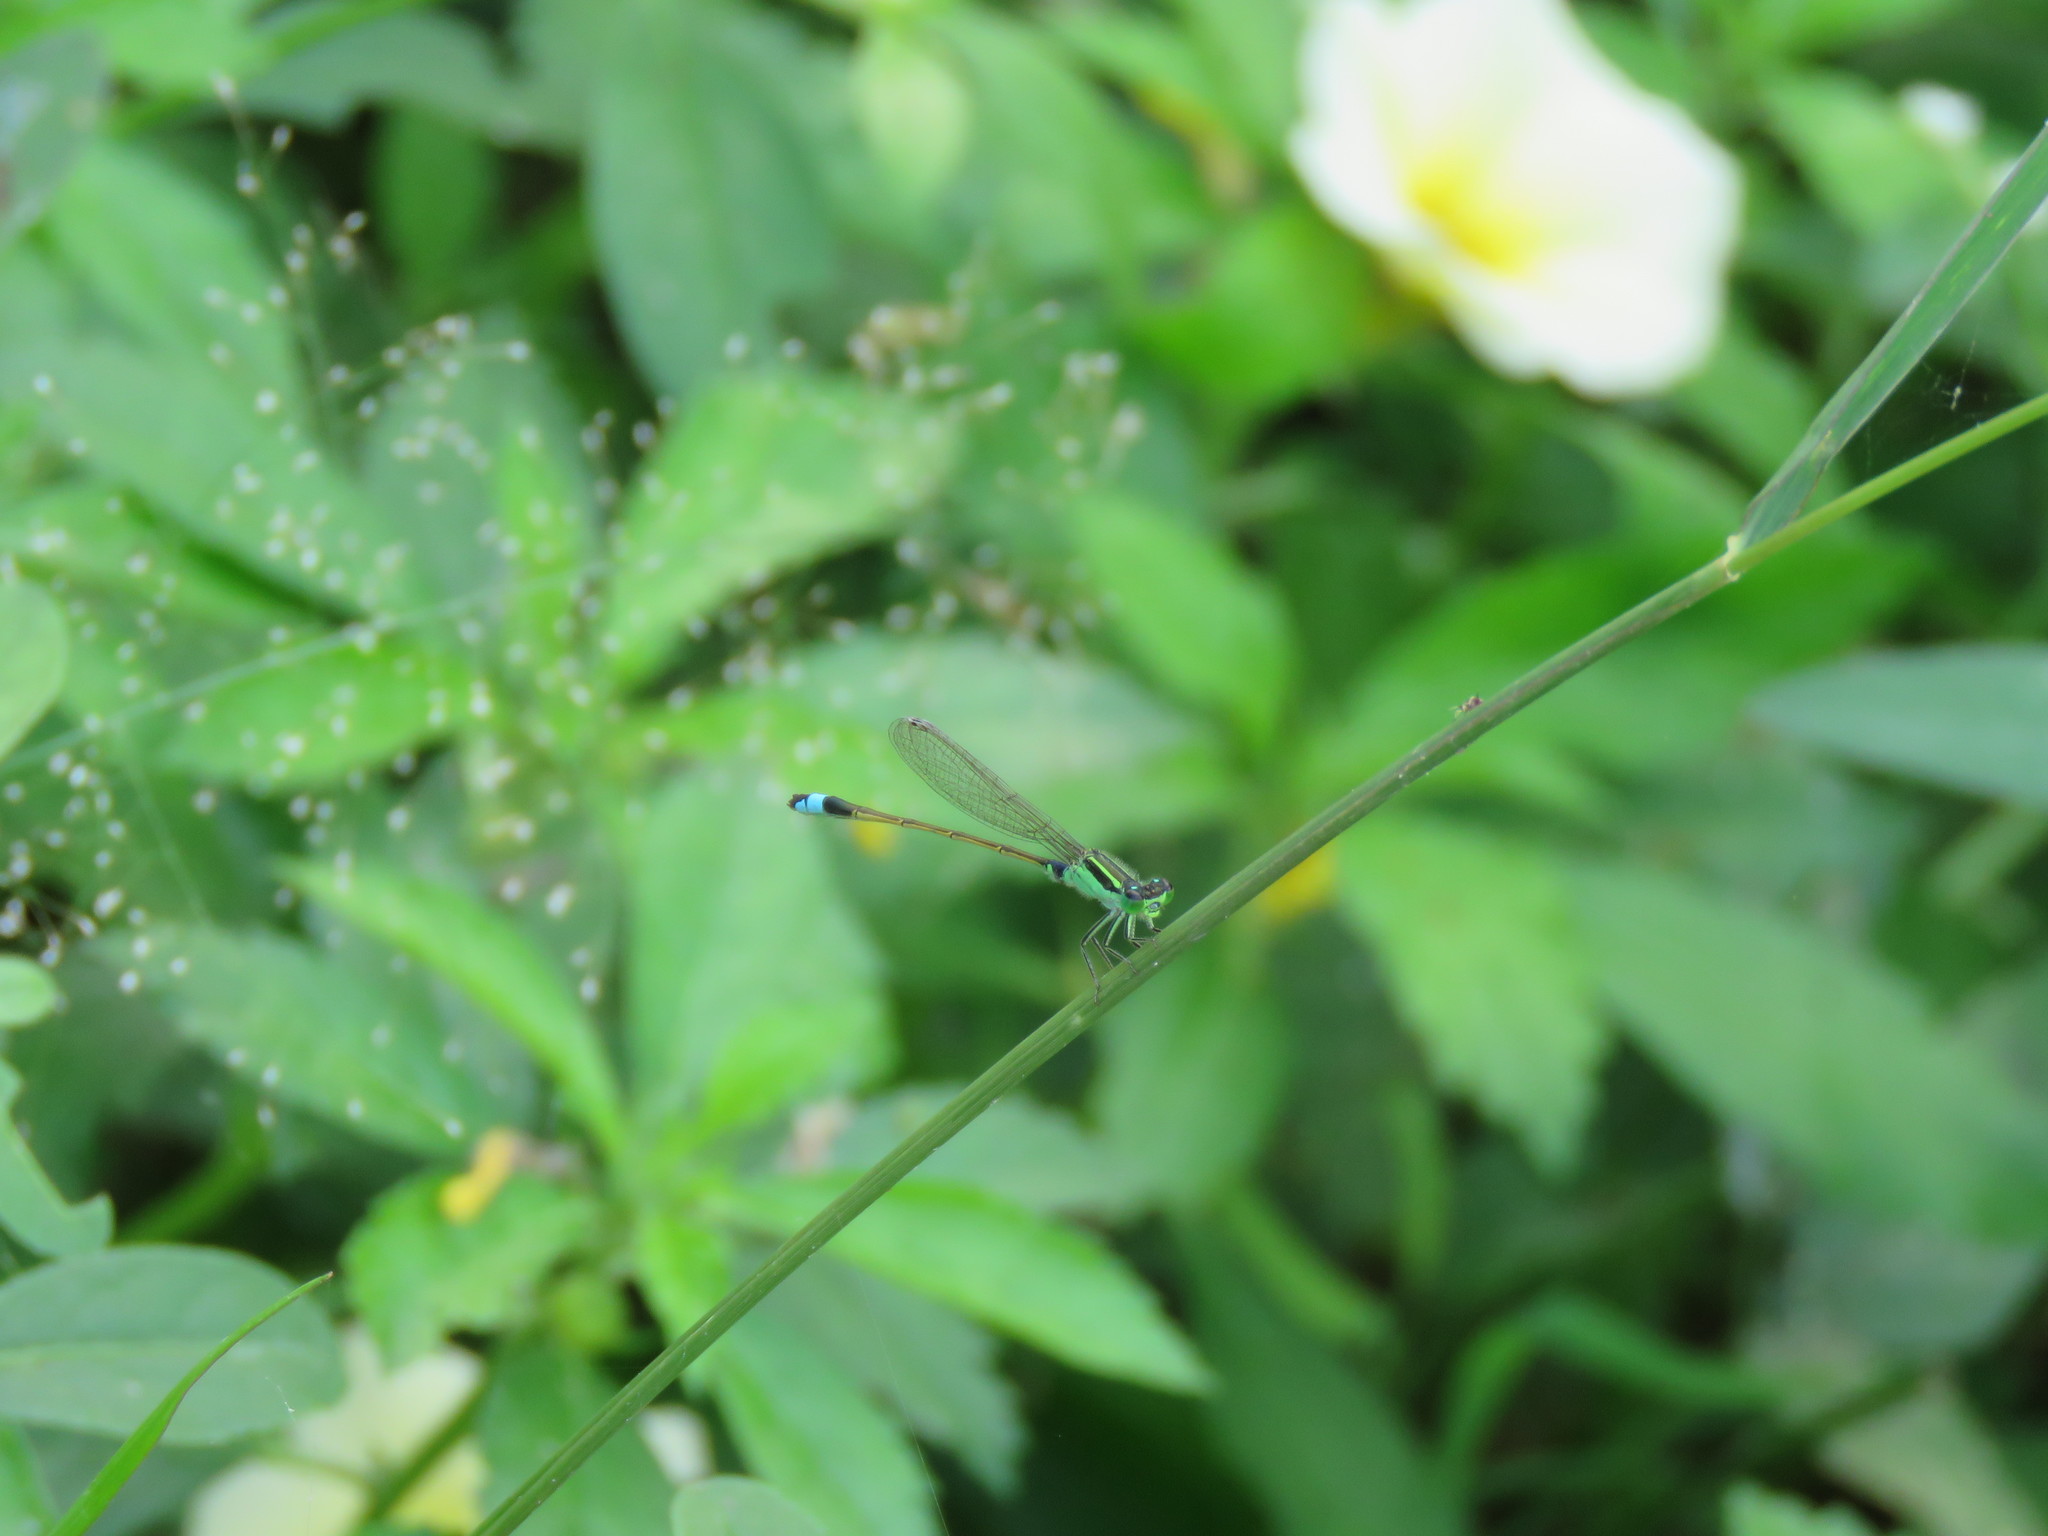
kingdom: Animalia
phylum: Arthropoda
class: Insecta
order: Odonata
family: Coenagrionidae
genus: Ischnura
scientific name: Ischnura senegalensis
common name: Tropical bluetail
